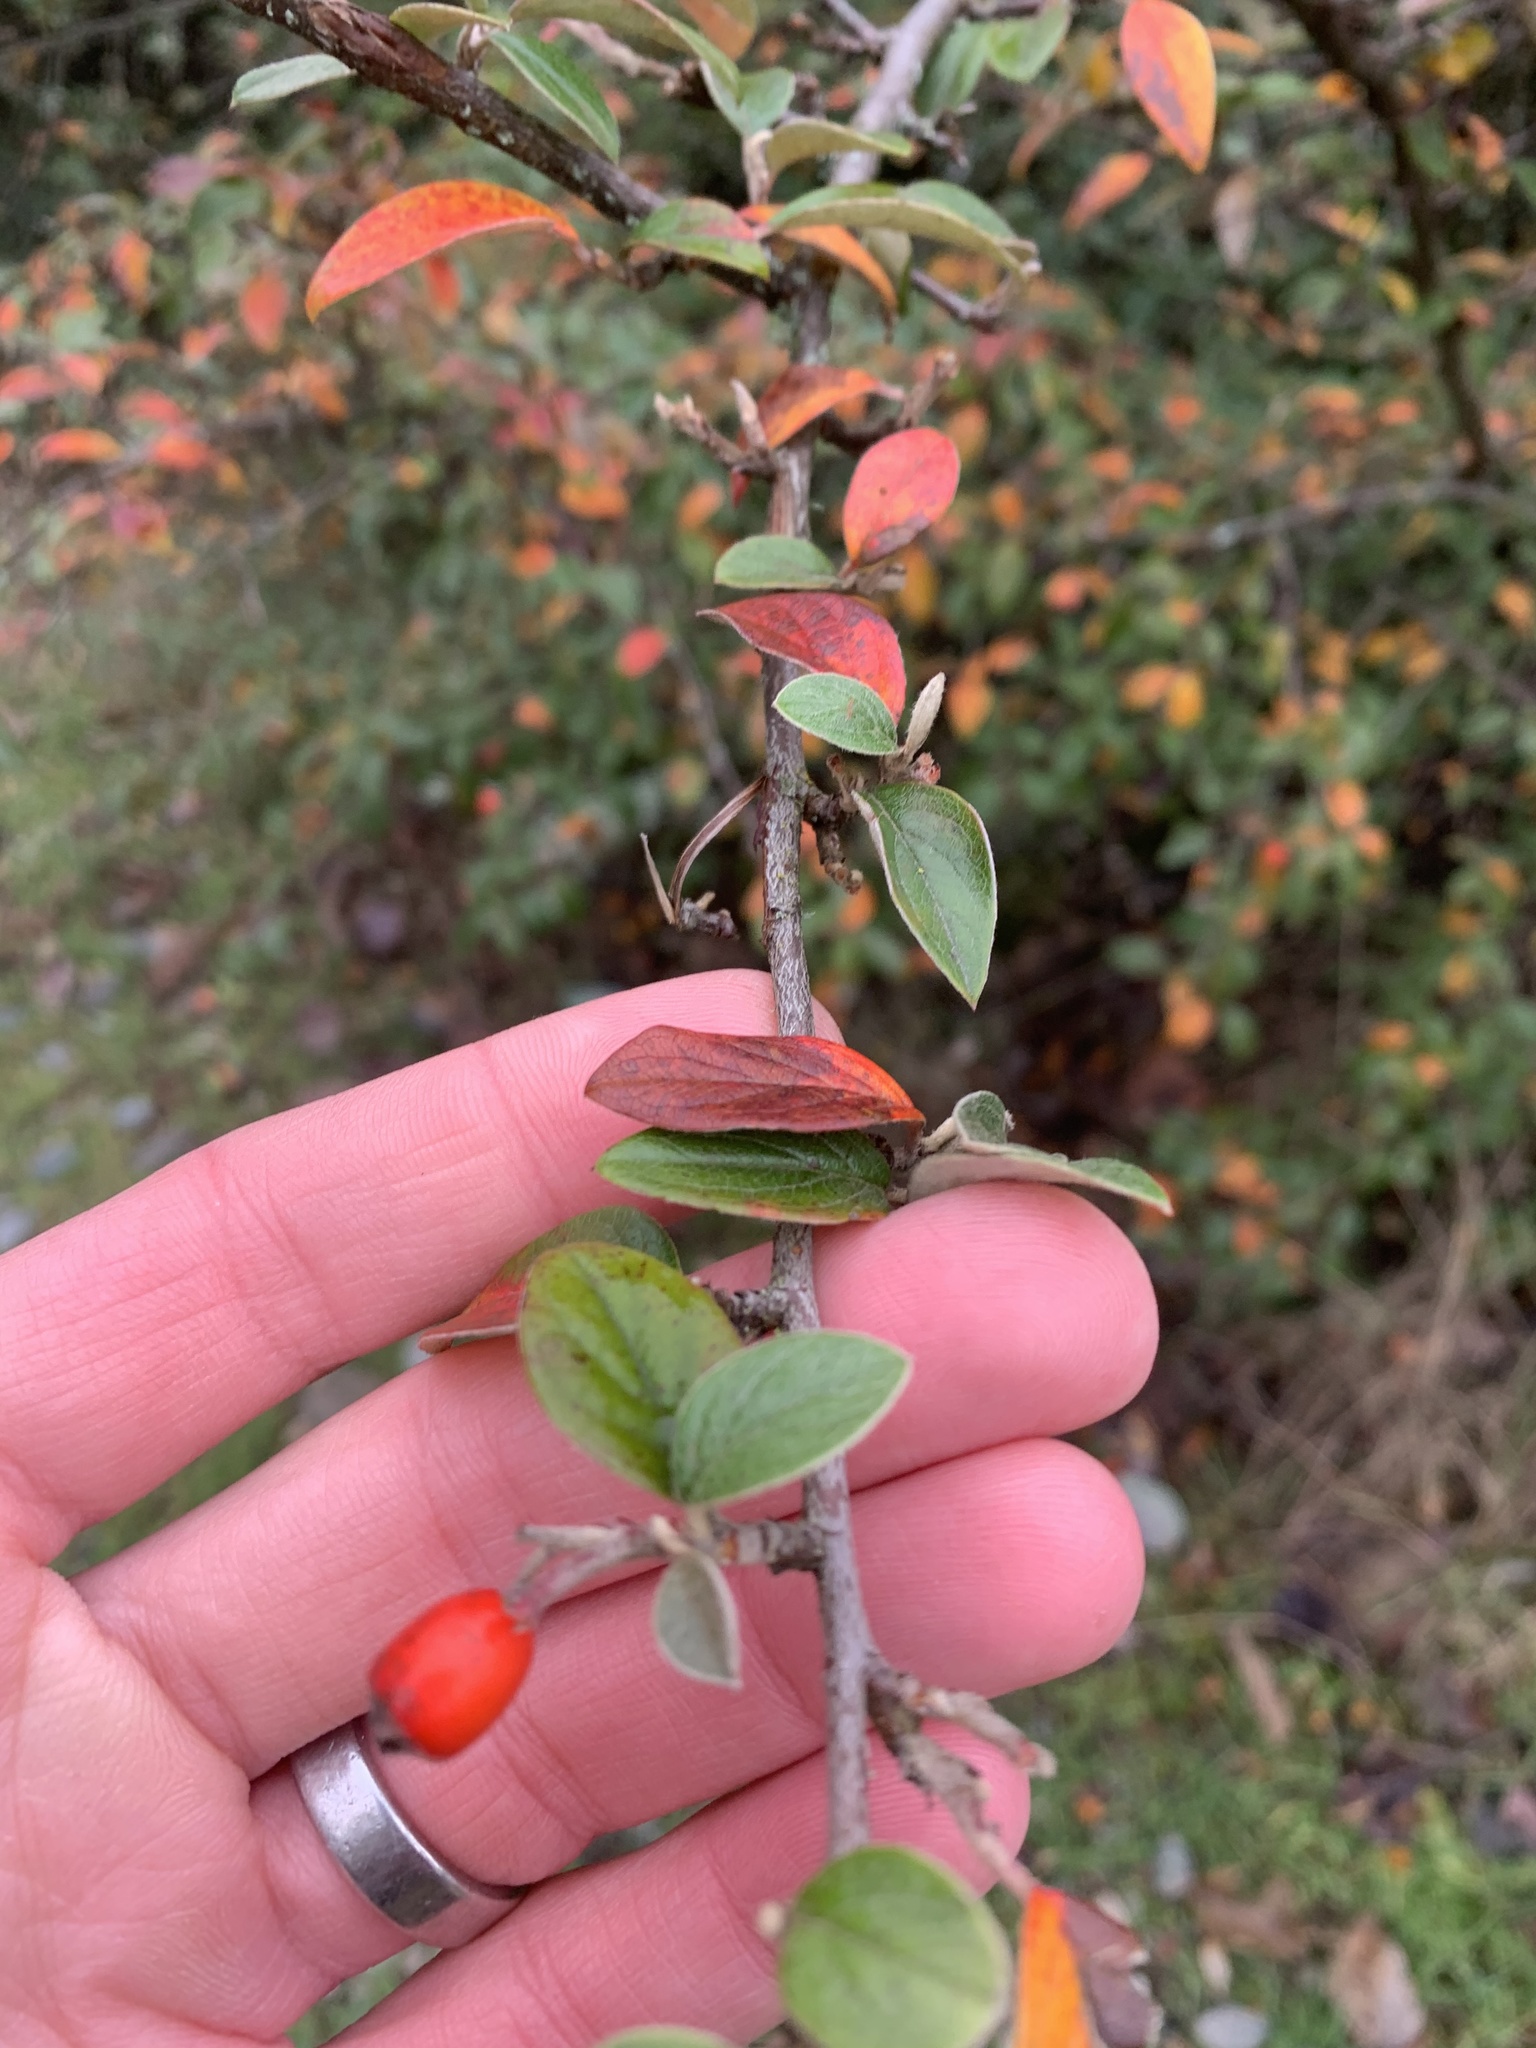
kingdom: Plantae
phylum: Tracheophyta
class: Magnoliopsida
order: Rosales
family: Rosaceae
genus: Cotoneaster
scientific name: Cotoneaster franchetii
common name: Franchet's cotoneaster
